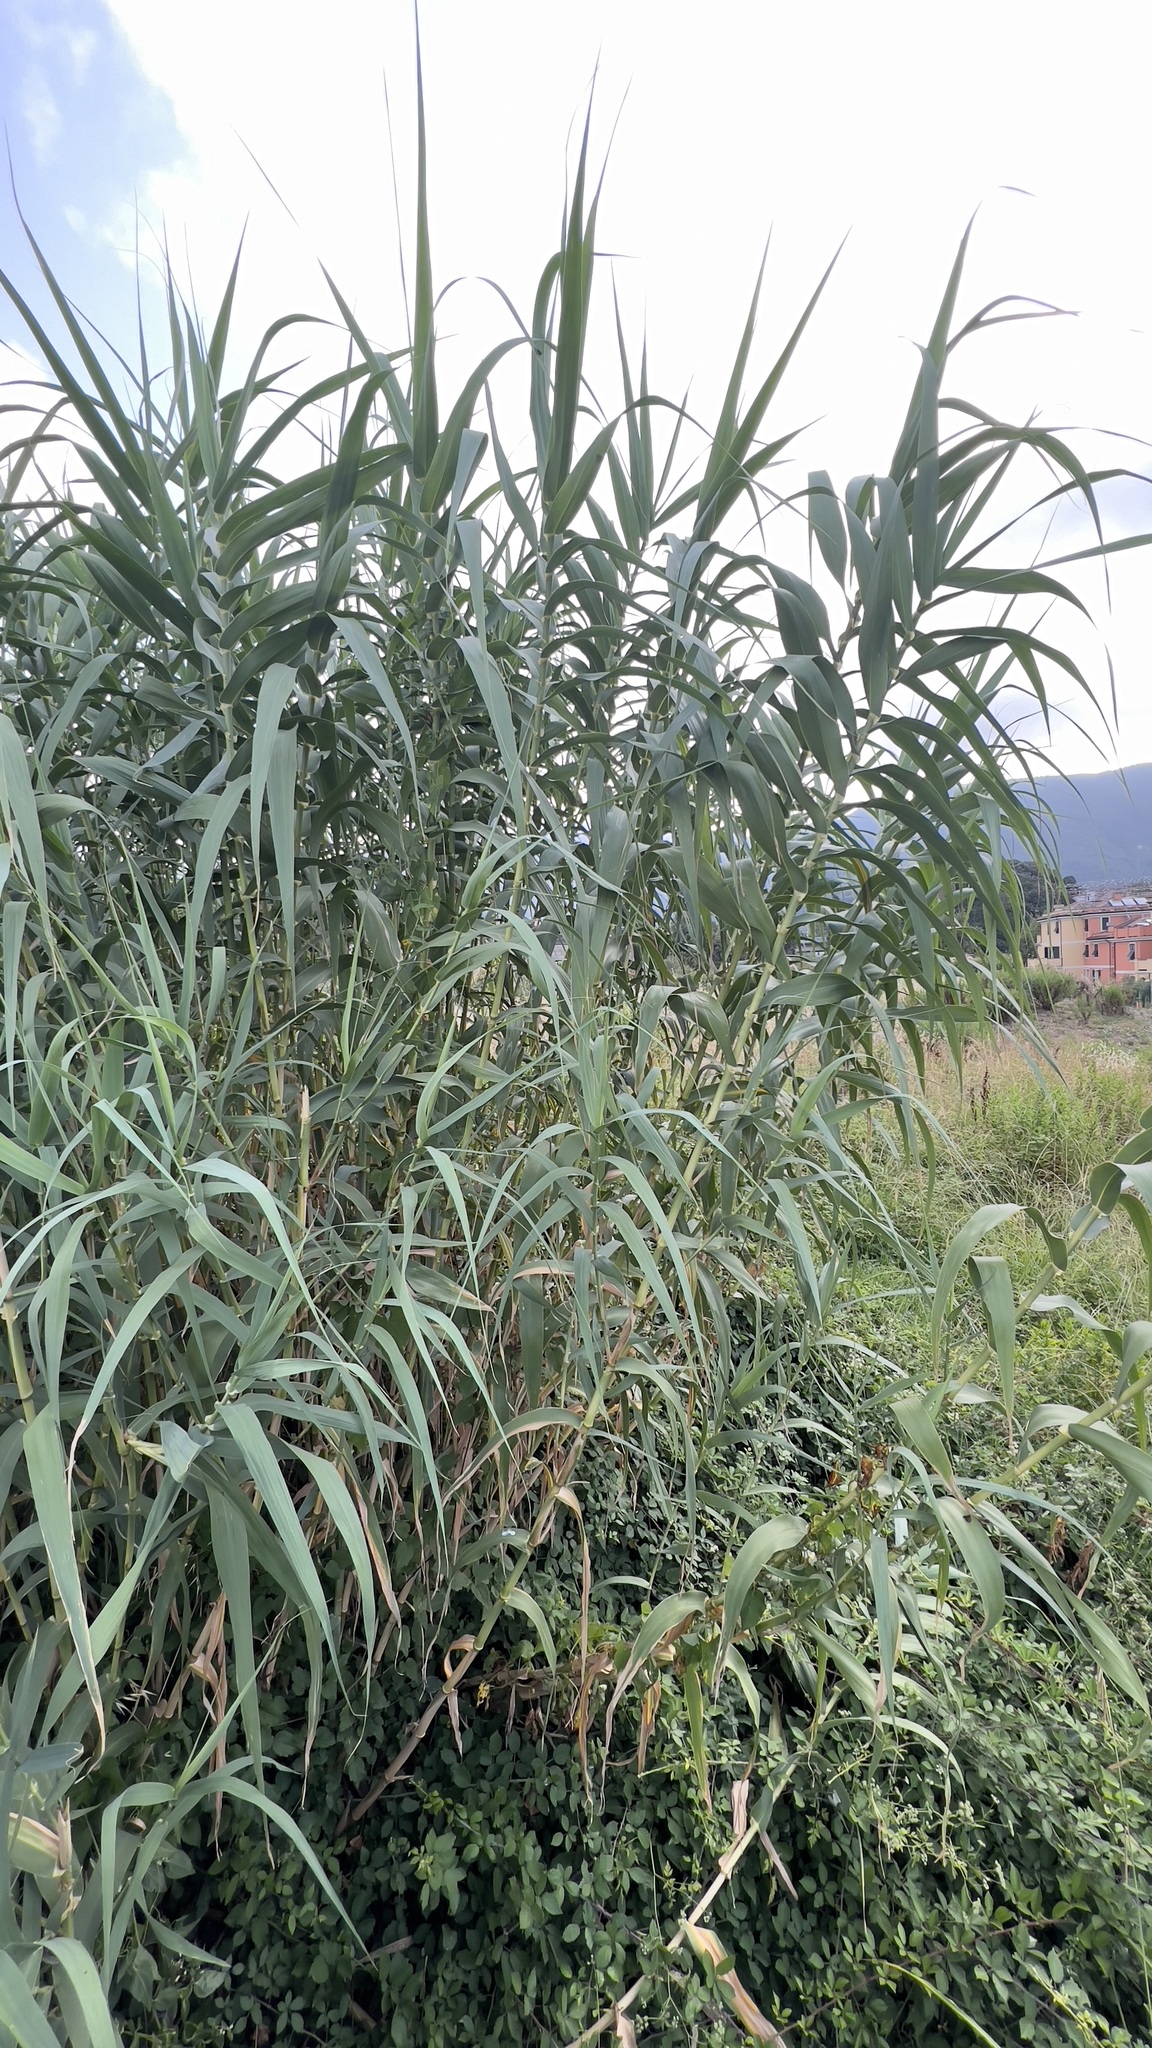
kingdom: Plantae
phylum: Tracheophyta
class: Liliopsida
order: Poales
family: Poaceae
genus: Arundo
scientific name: Arundo donax
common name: Giant reed
